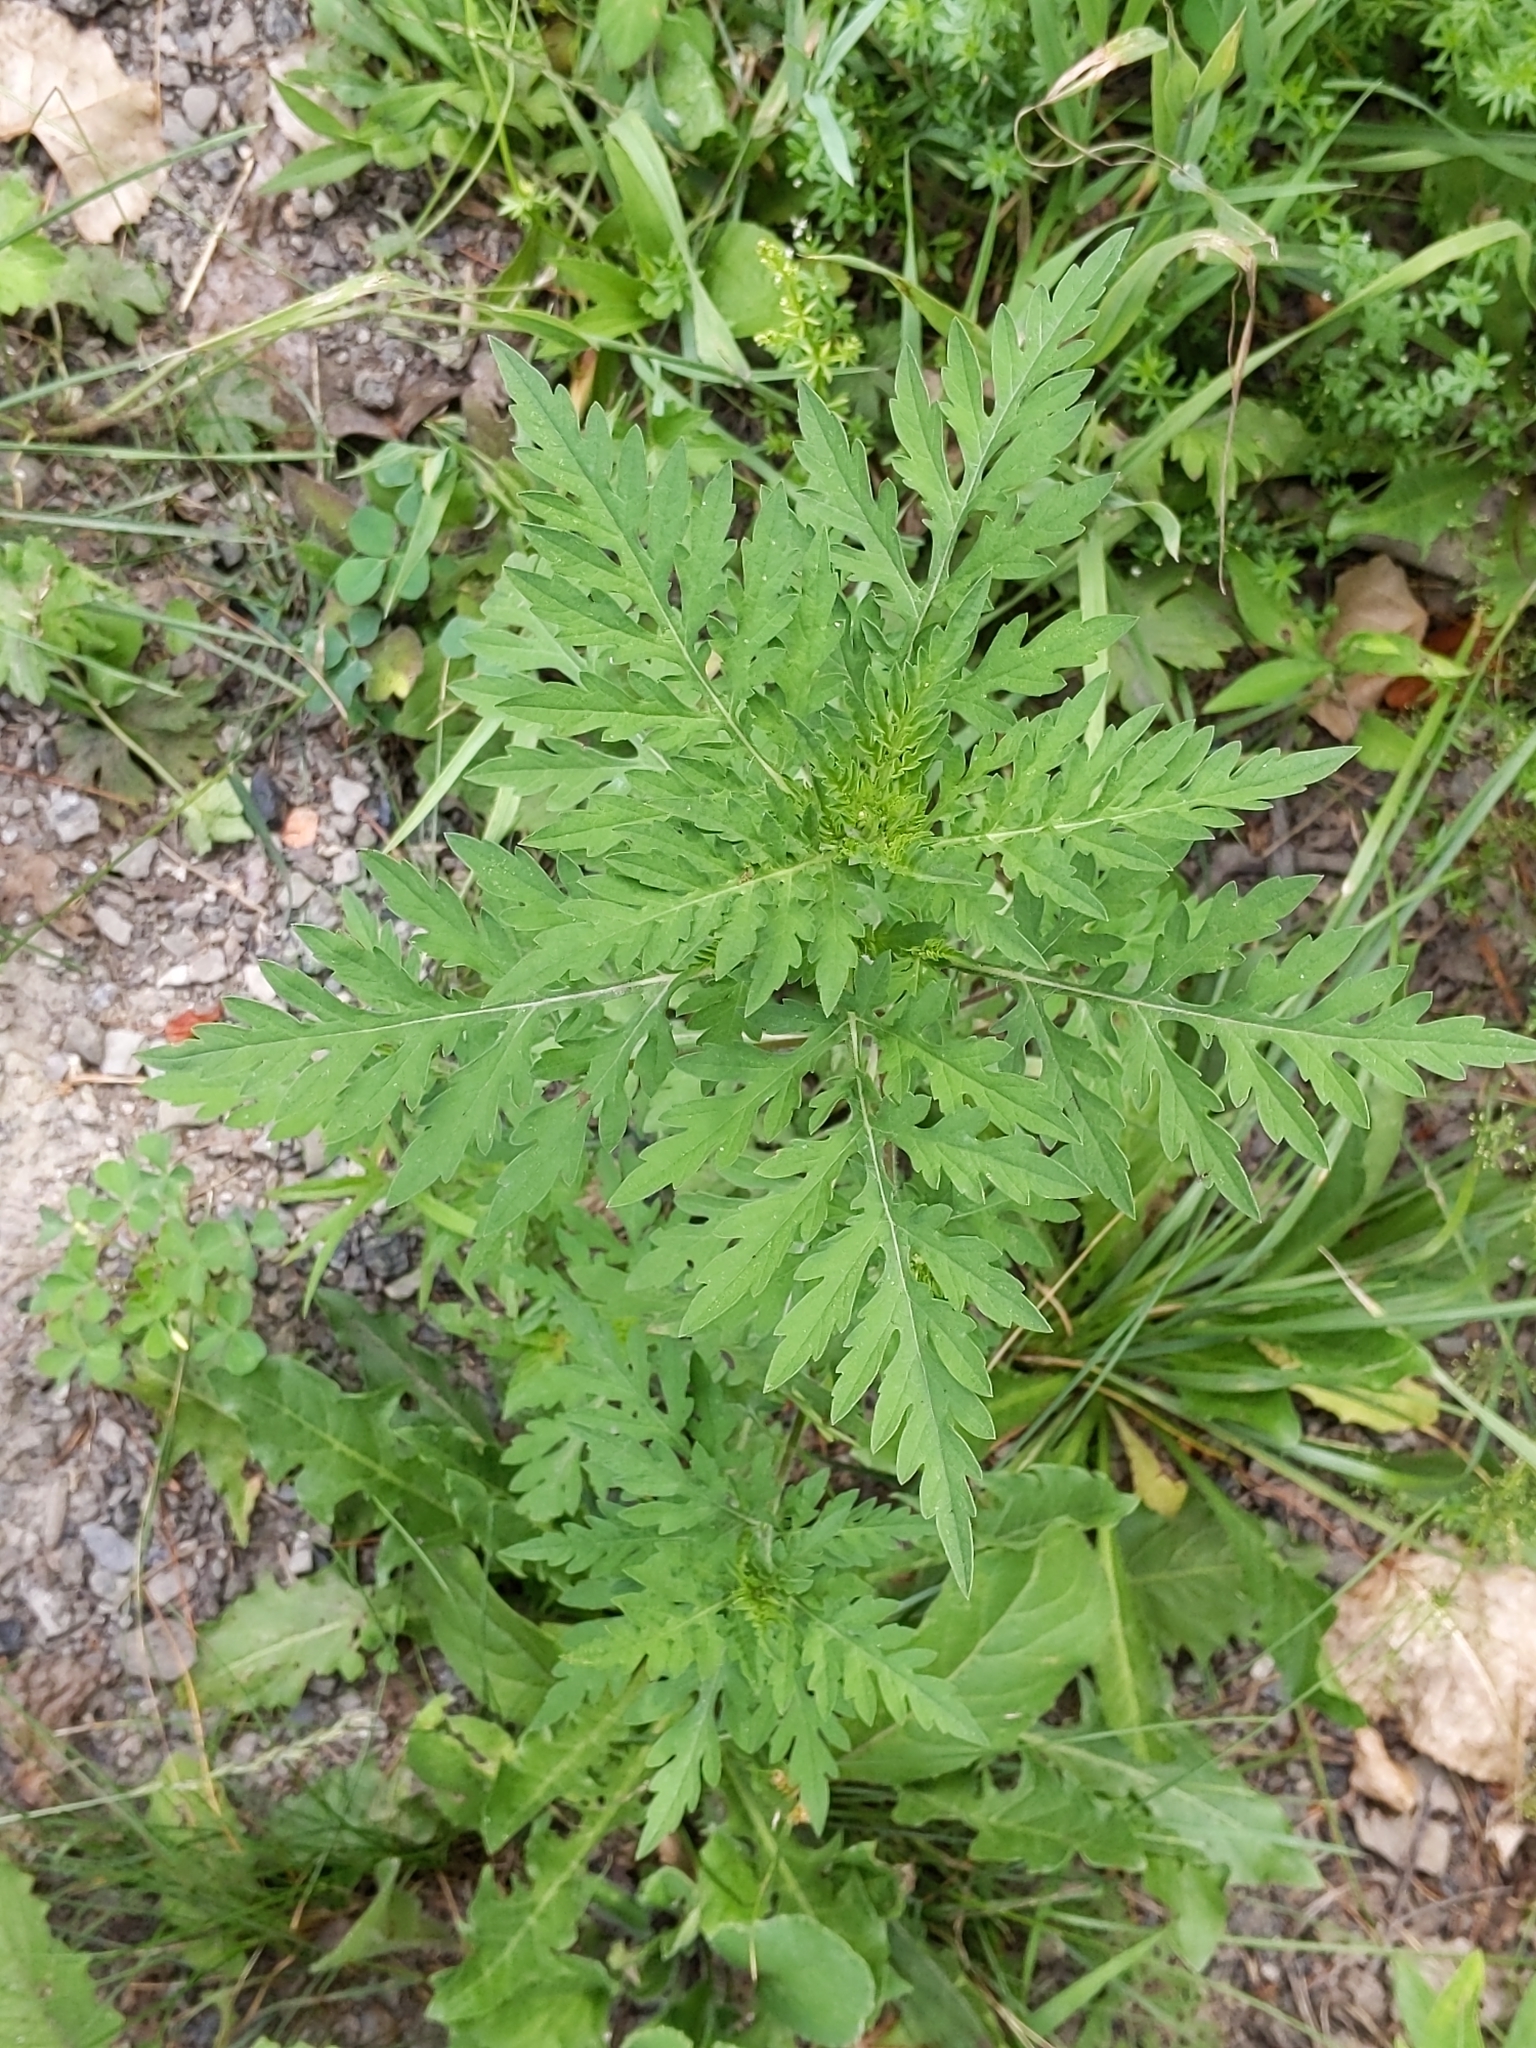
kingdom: Plantae
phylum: Tracheophyta
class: Magnoliopsida
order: Asterales
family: Asteraceae
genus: Ambrosia
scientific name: Ambrosia artemisiifolia
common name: Annual ragweed
